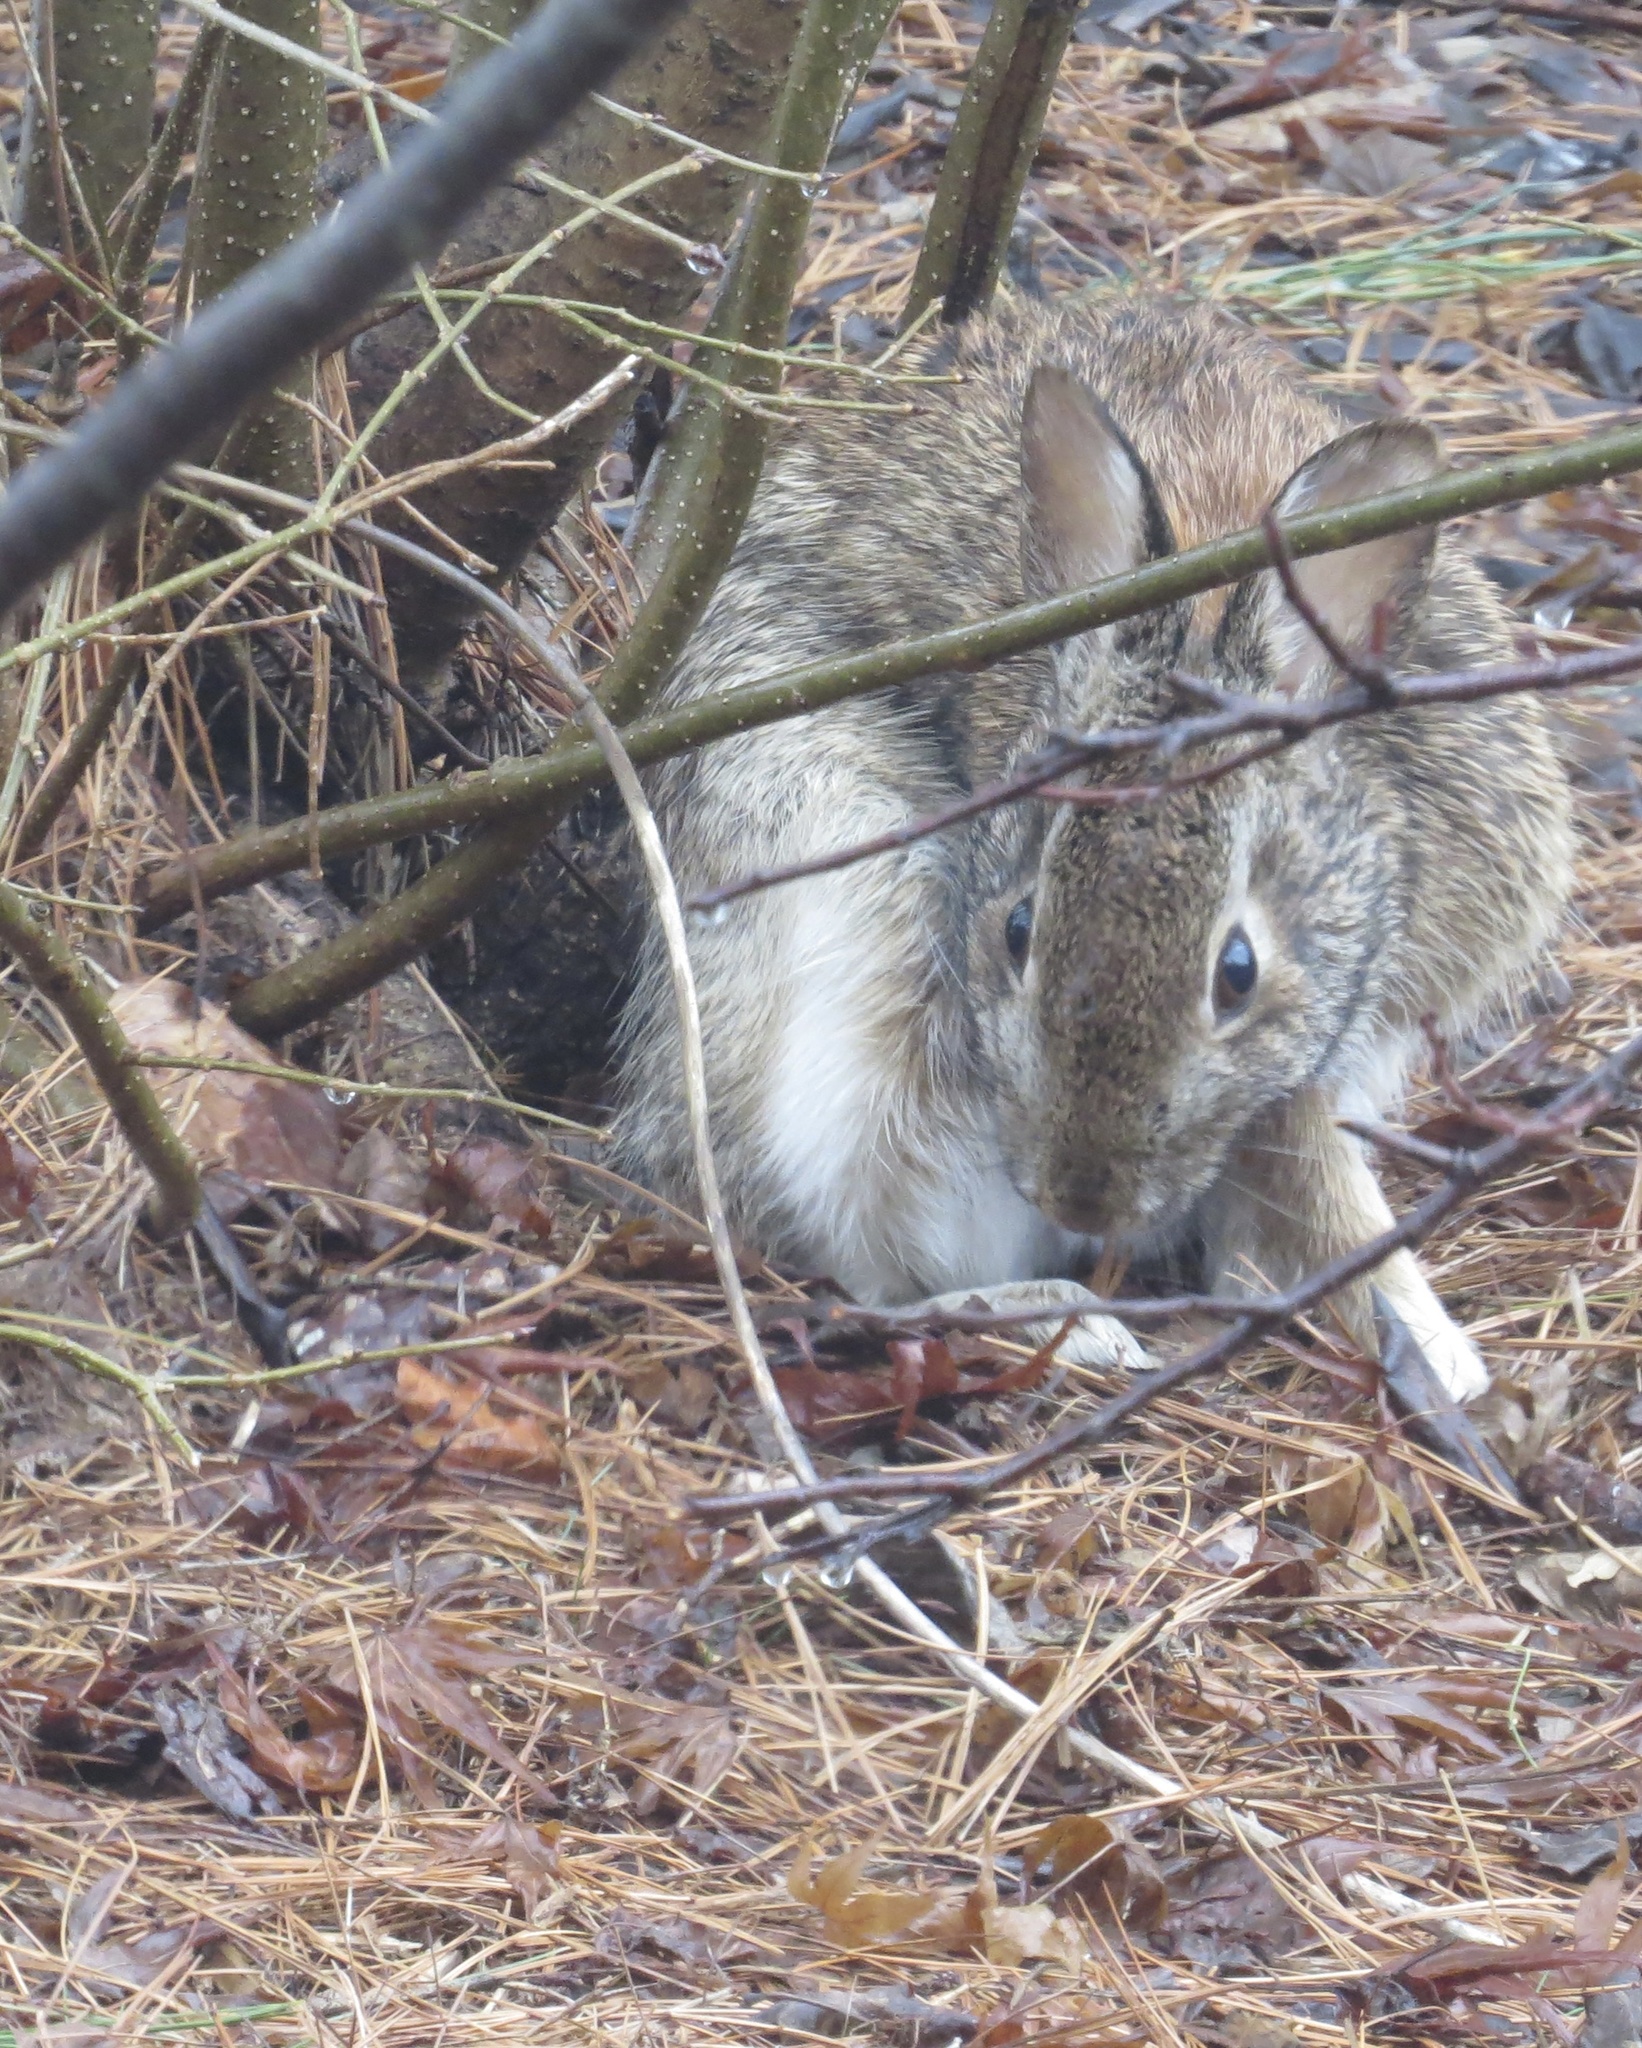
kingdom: Animalia
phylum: Chordata
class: Mammalia
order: Lagomorpha
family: Leporidae
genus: Sylvilagus
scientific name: Sylvilagus floridanus
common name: Eastern cottontail
